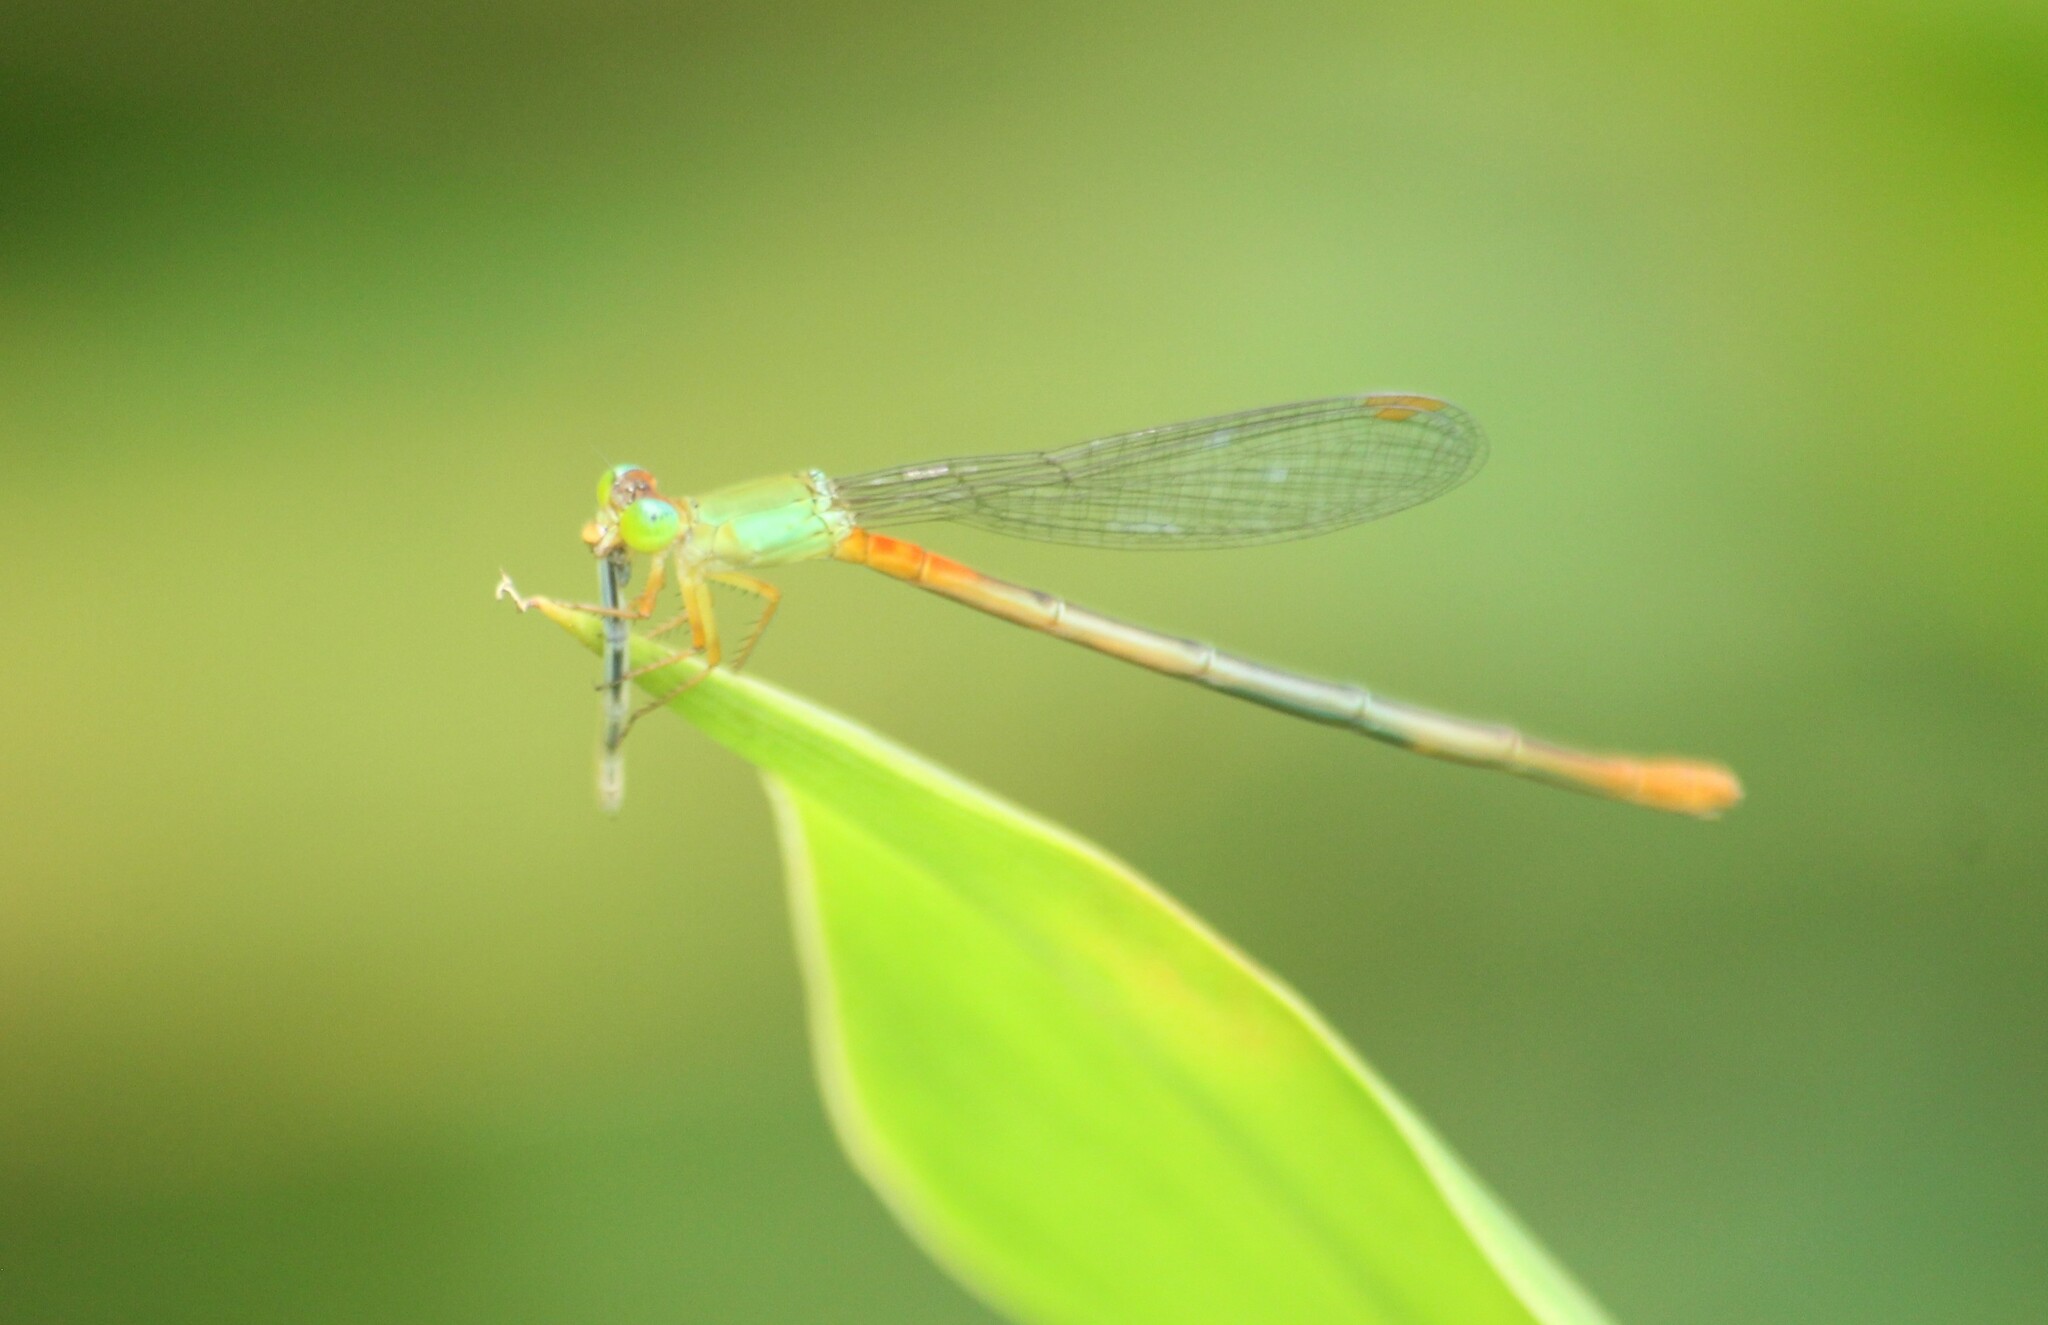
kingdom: Animalia
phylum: Arthropoda
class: Insecta
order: Odonata
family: Coenagrionidae
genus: Ceriagrion
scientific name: Ceriagrion cerinorubellum
